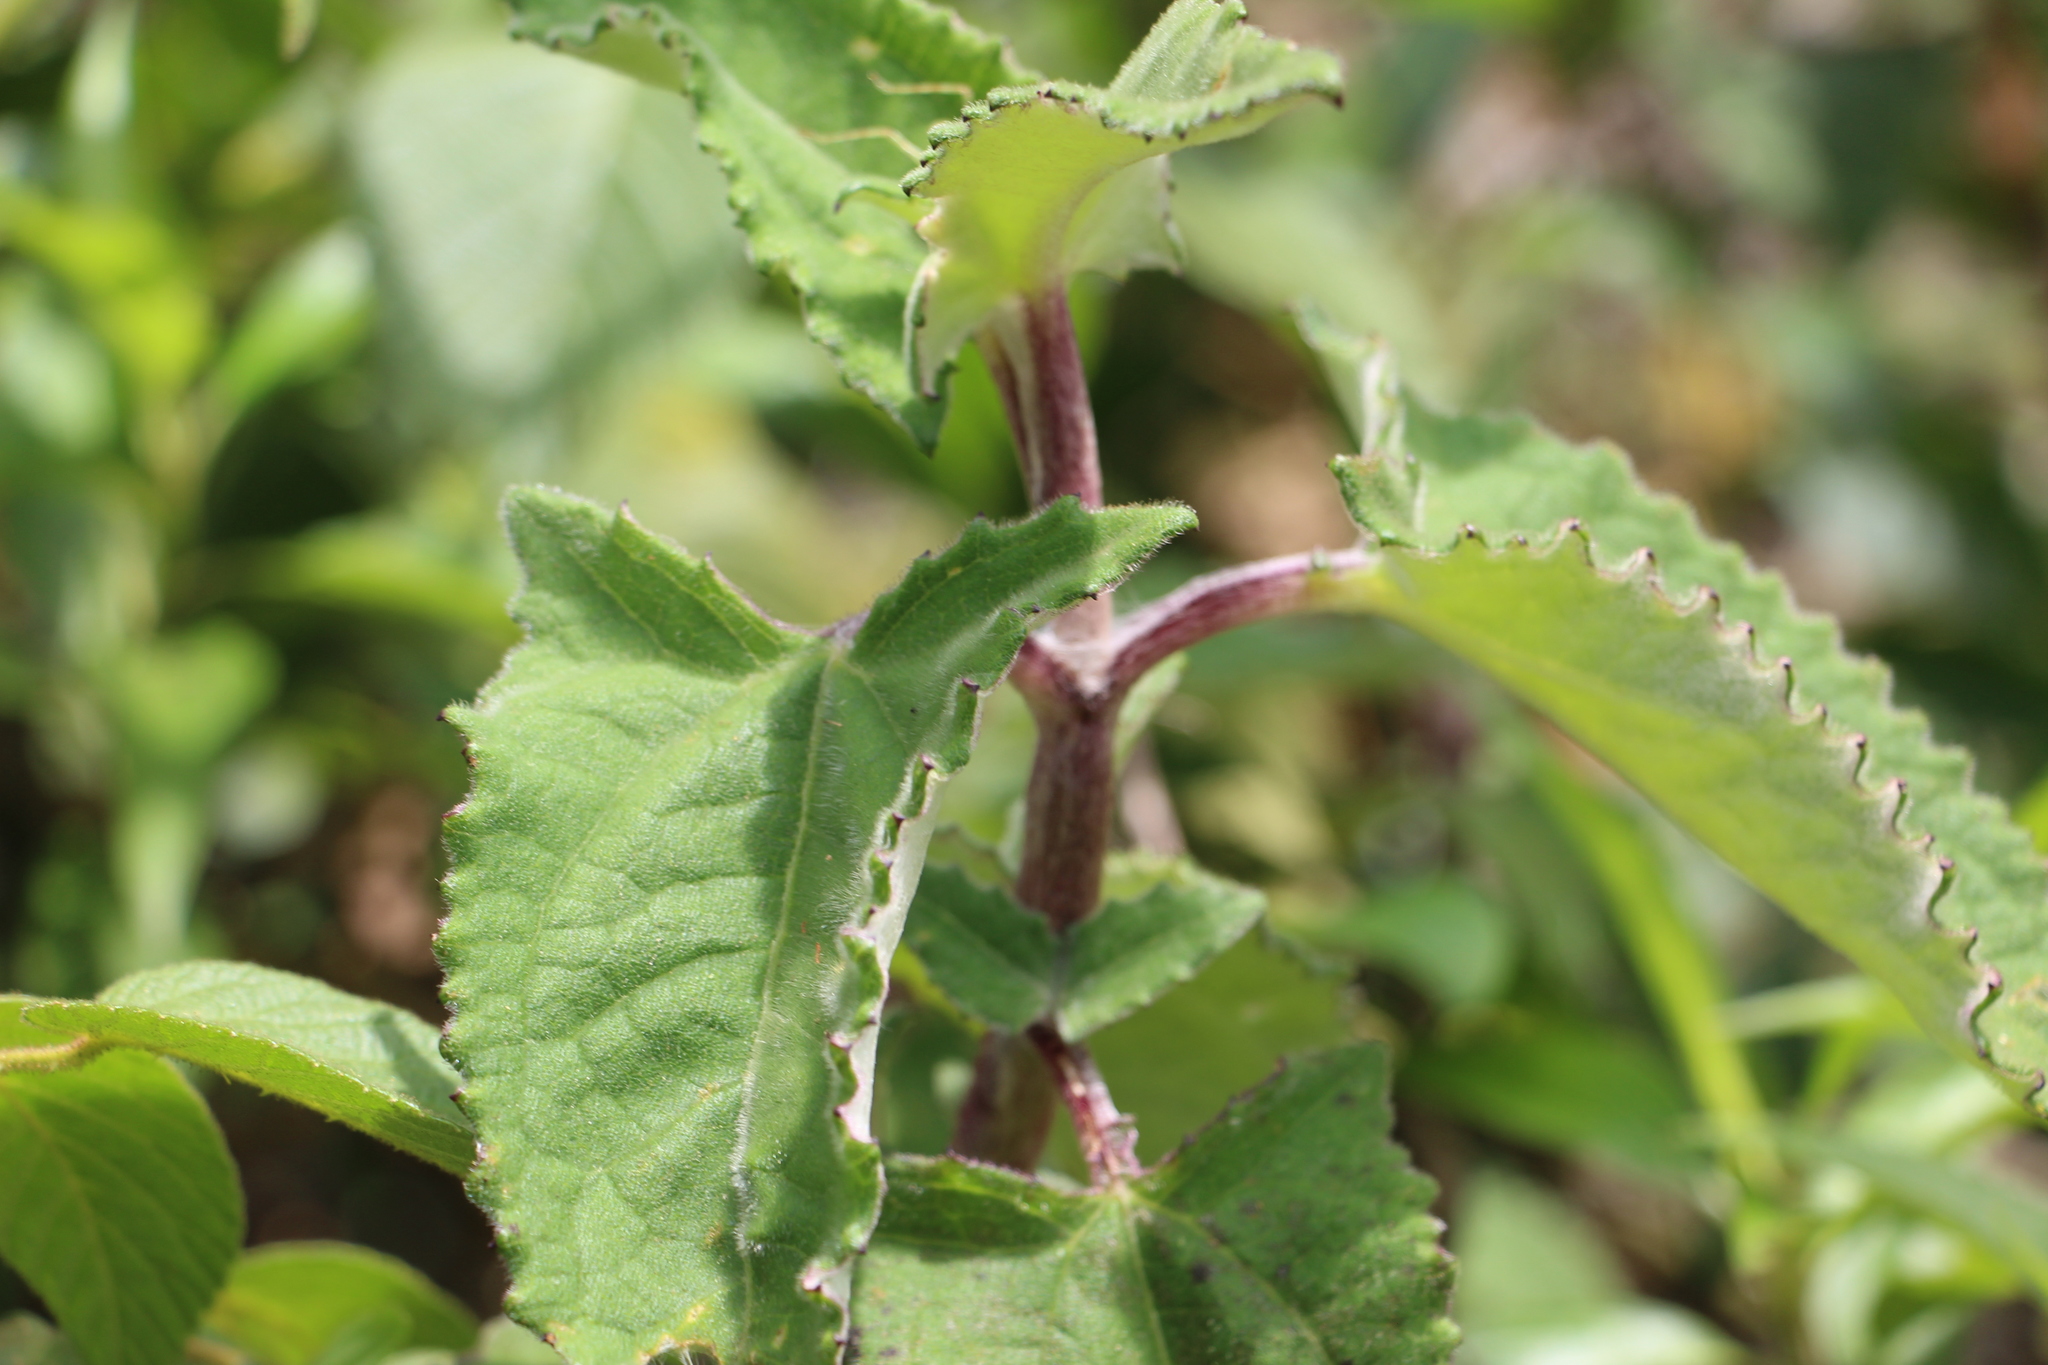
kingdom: Plantae
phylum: Tracheophyta
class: Magnoliopsida
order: Asterales
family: Asteraceae
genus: Munnozia
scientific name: Munnozia senecionidis
